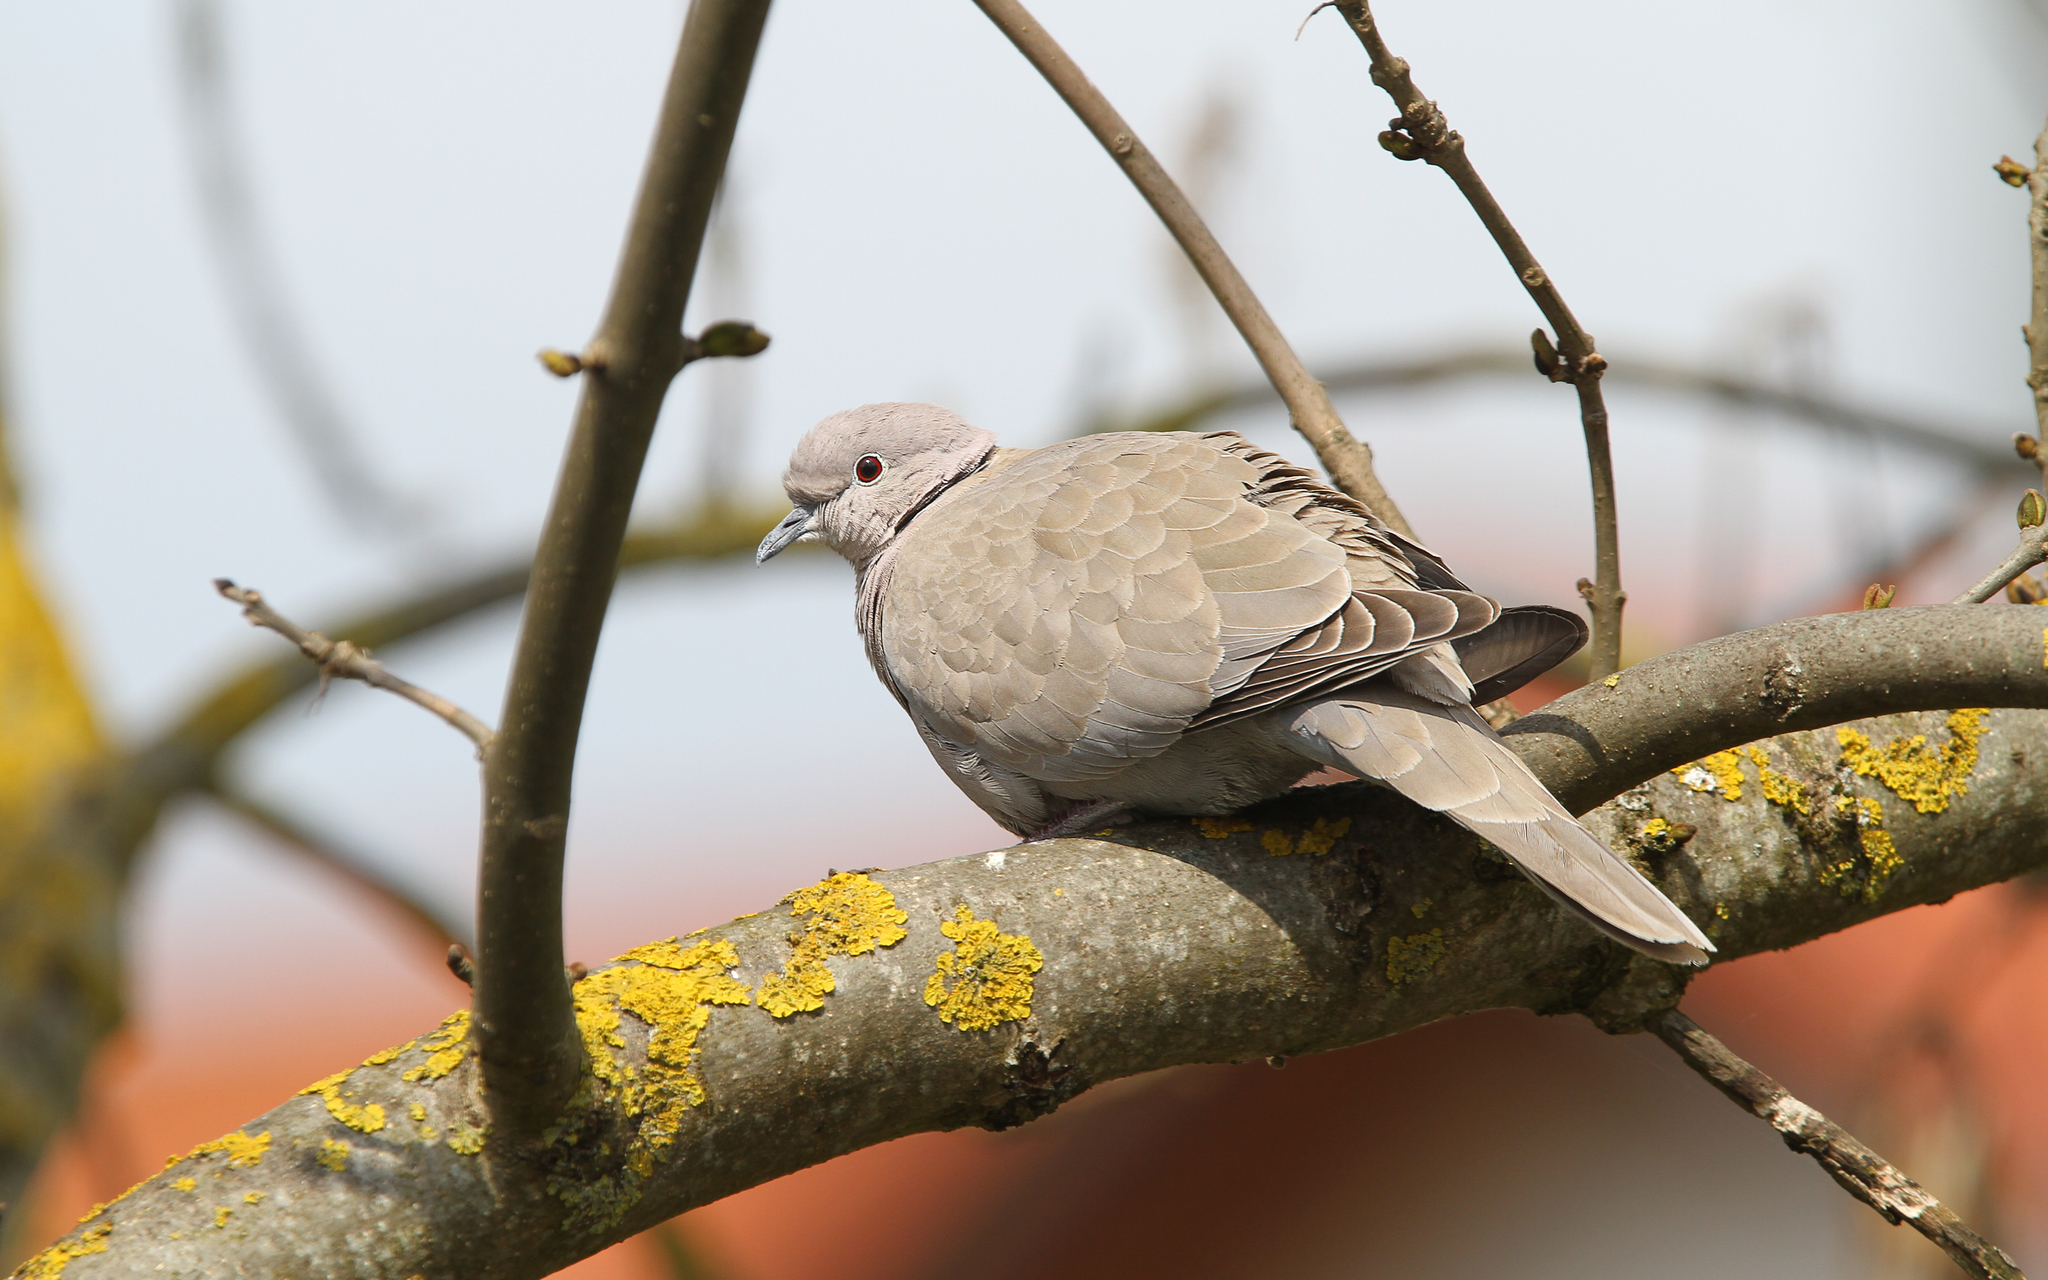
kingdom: Animalia
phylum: Chordata
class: Aves
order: Columbiformes
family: Columbidae
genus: Streptopelia
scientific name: Streptopelia decaocto
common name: Eurasian collared dove
